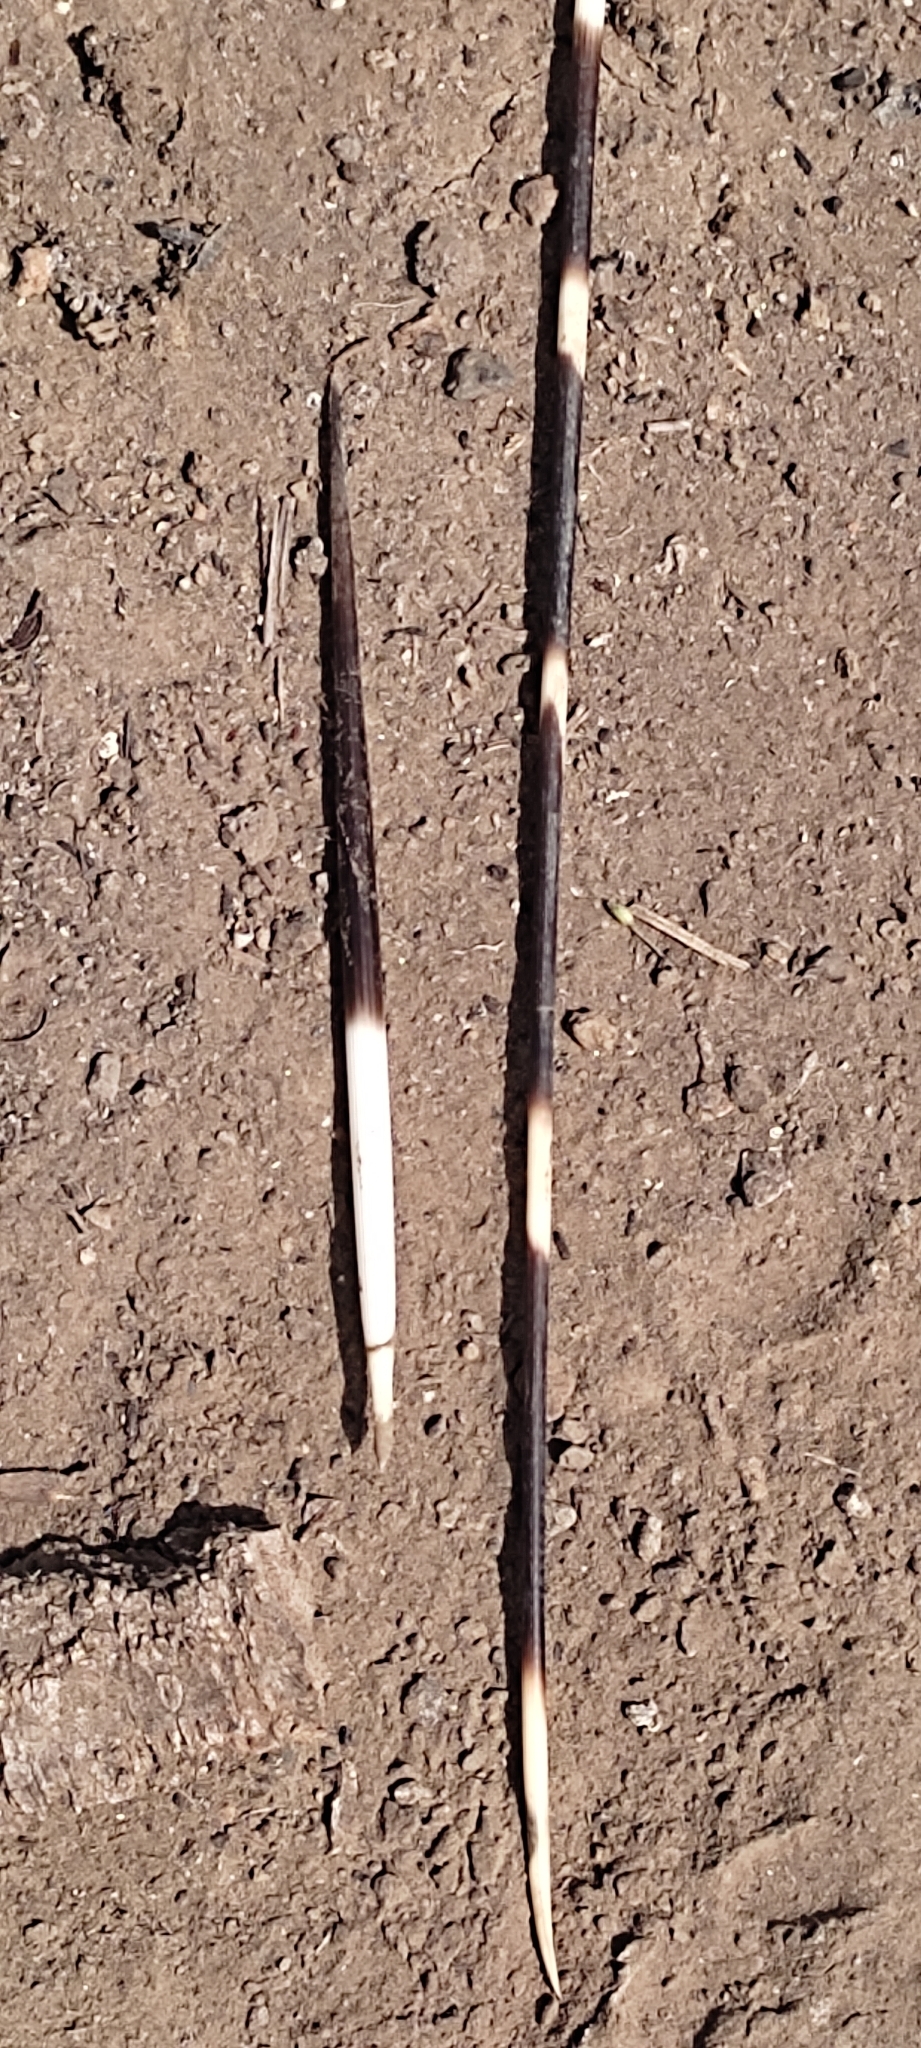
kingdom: Animalia
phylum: Chordata
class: Mammalia
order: Rodentia
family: Hystricidae
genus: Hystrix
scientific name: Hystrix cristata
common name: Crested porcupine
